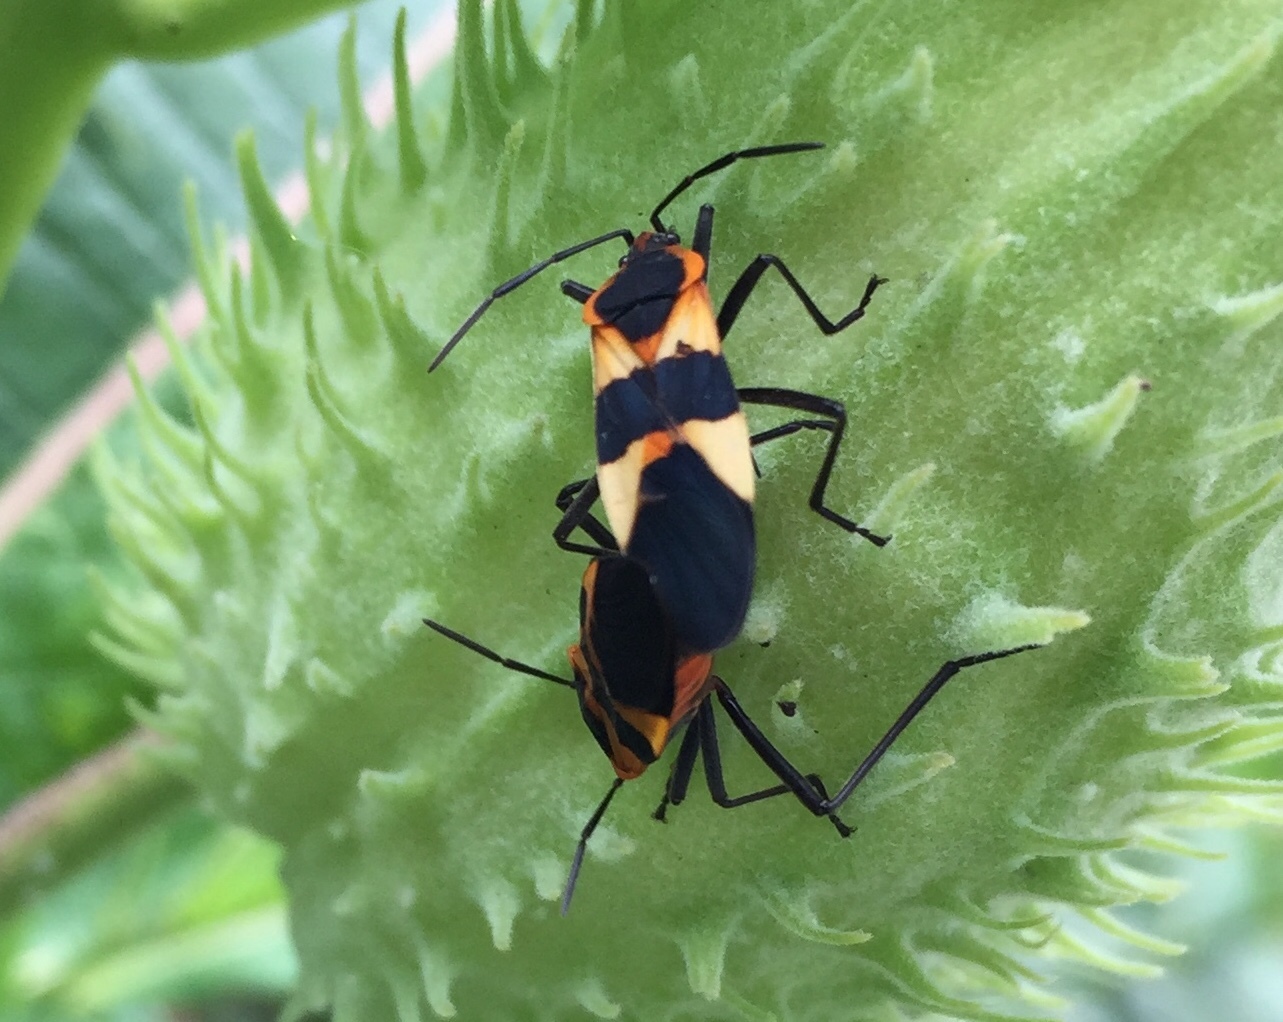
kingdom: Animalia
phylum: Arthropoda
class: Insecta
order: Hemiptera
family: Lygaeidae
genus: Oncopeltus
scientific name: Oncopeltus fasciatus
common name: Large milkweed bug
